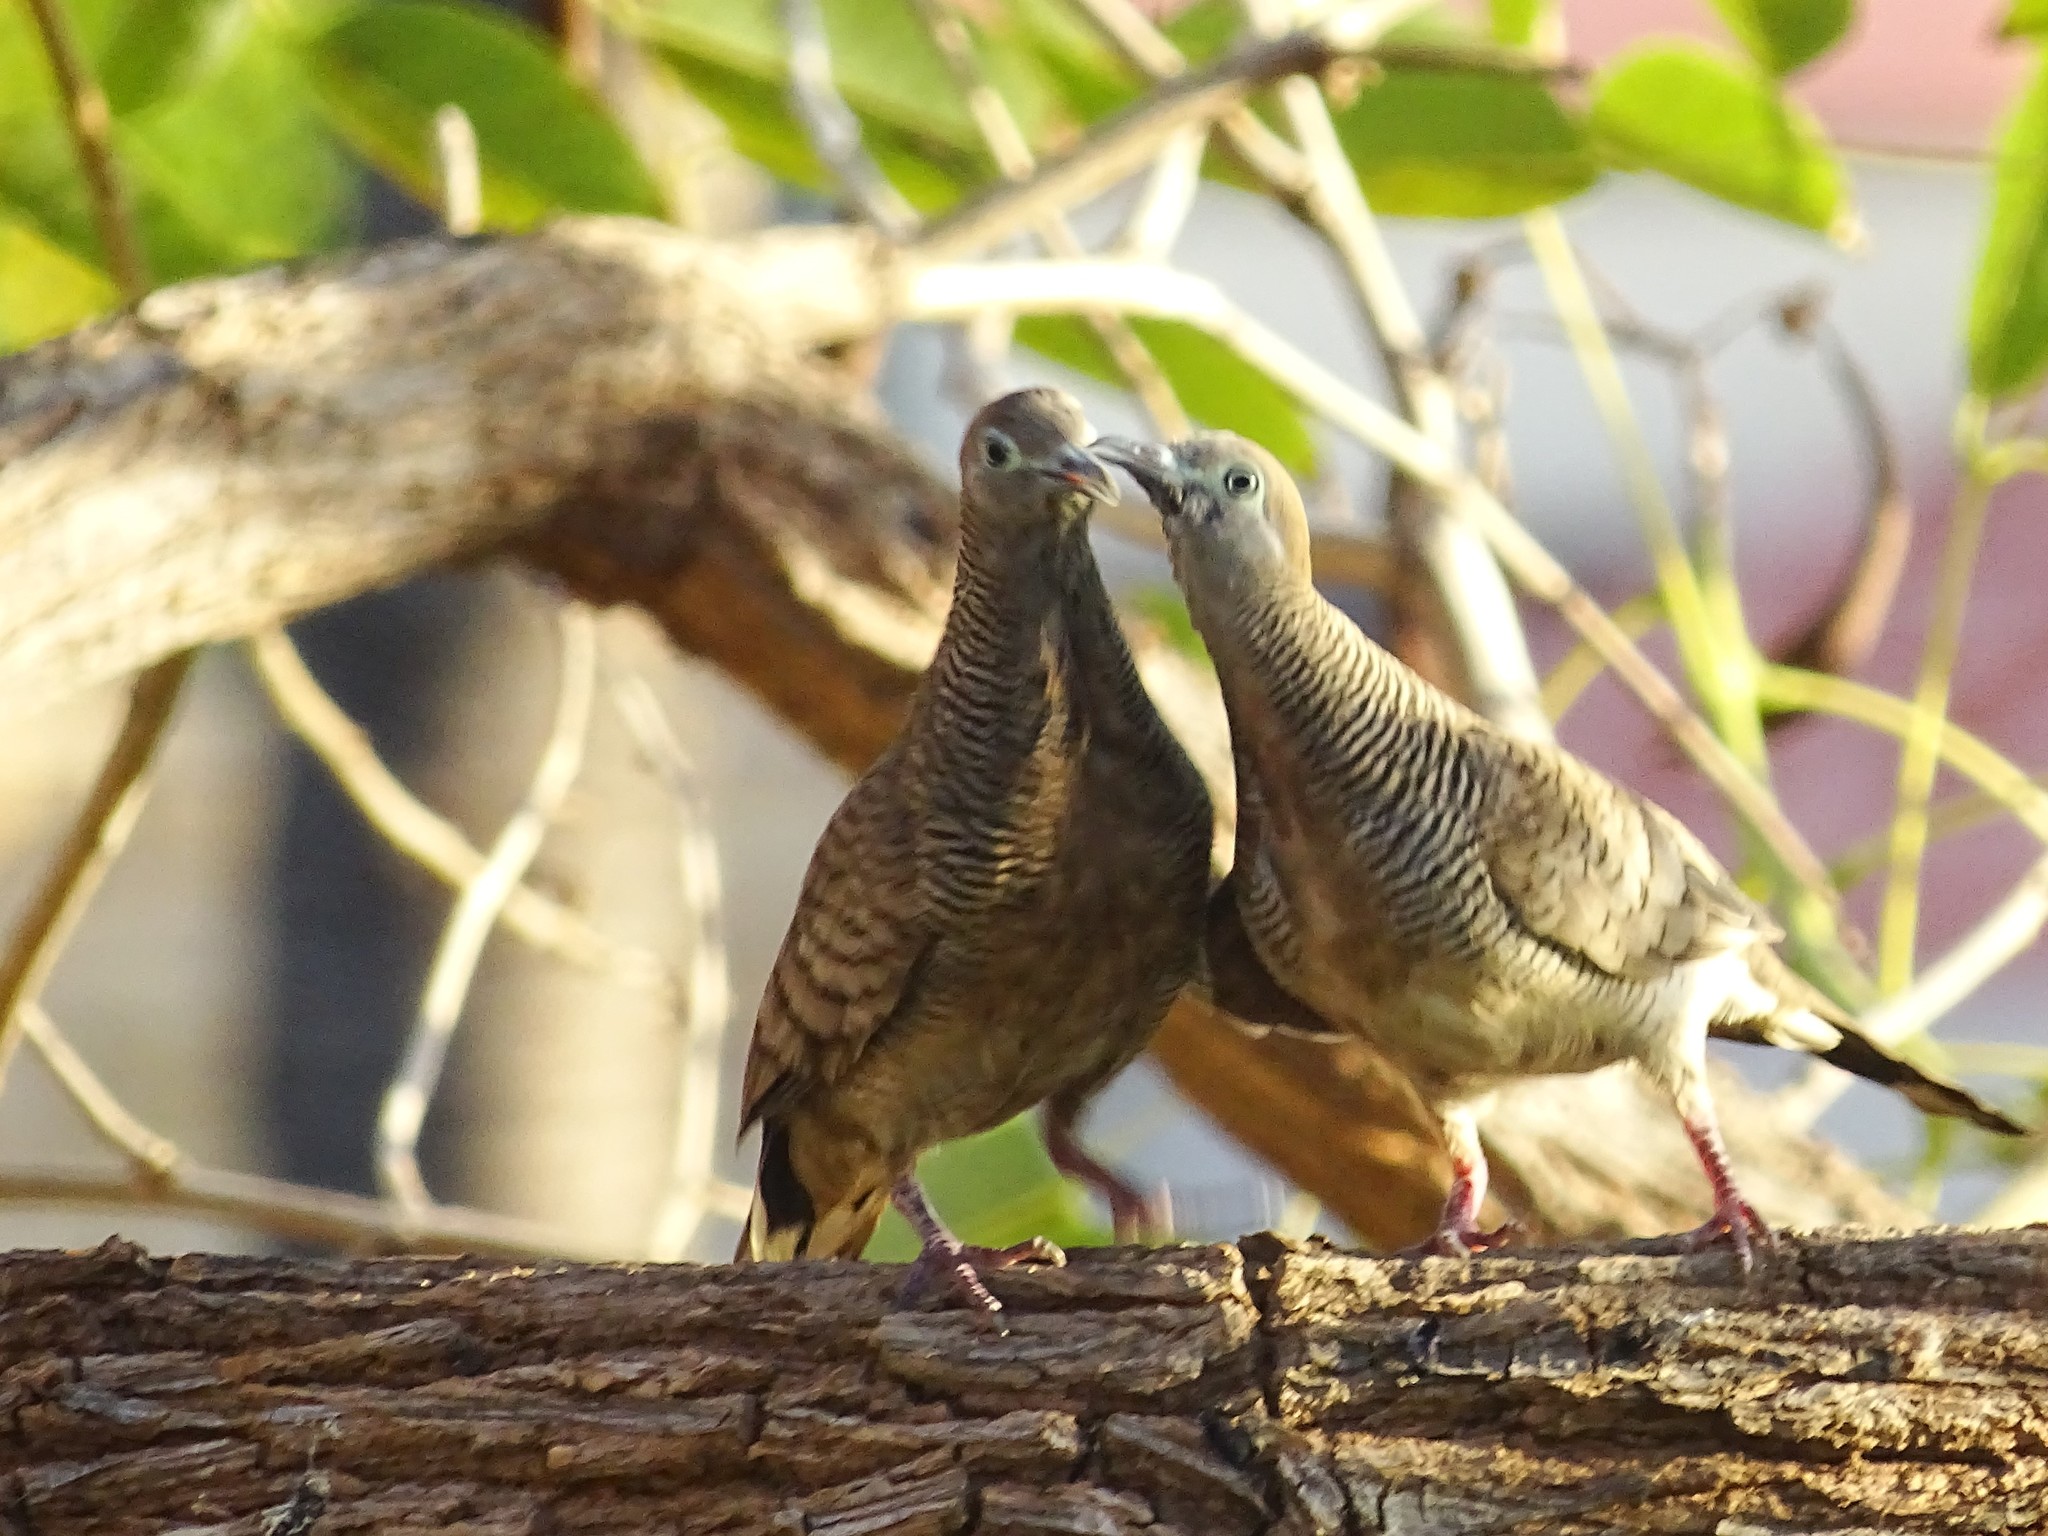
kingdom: Animalia
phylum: Chordata
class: Aves
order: Columbiformes
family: Columbidae
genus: Geopelia
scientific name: Geopelia striata
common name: Zebra dove
